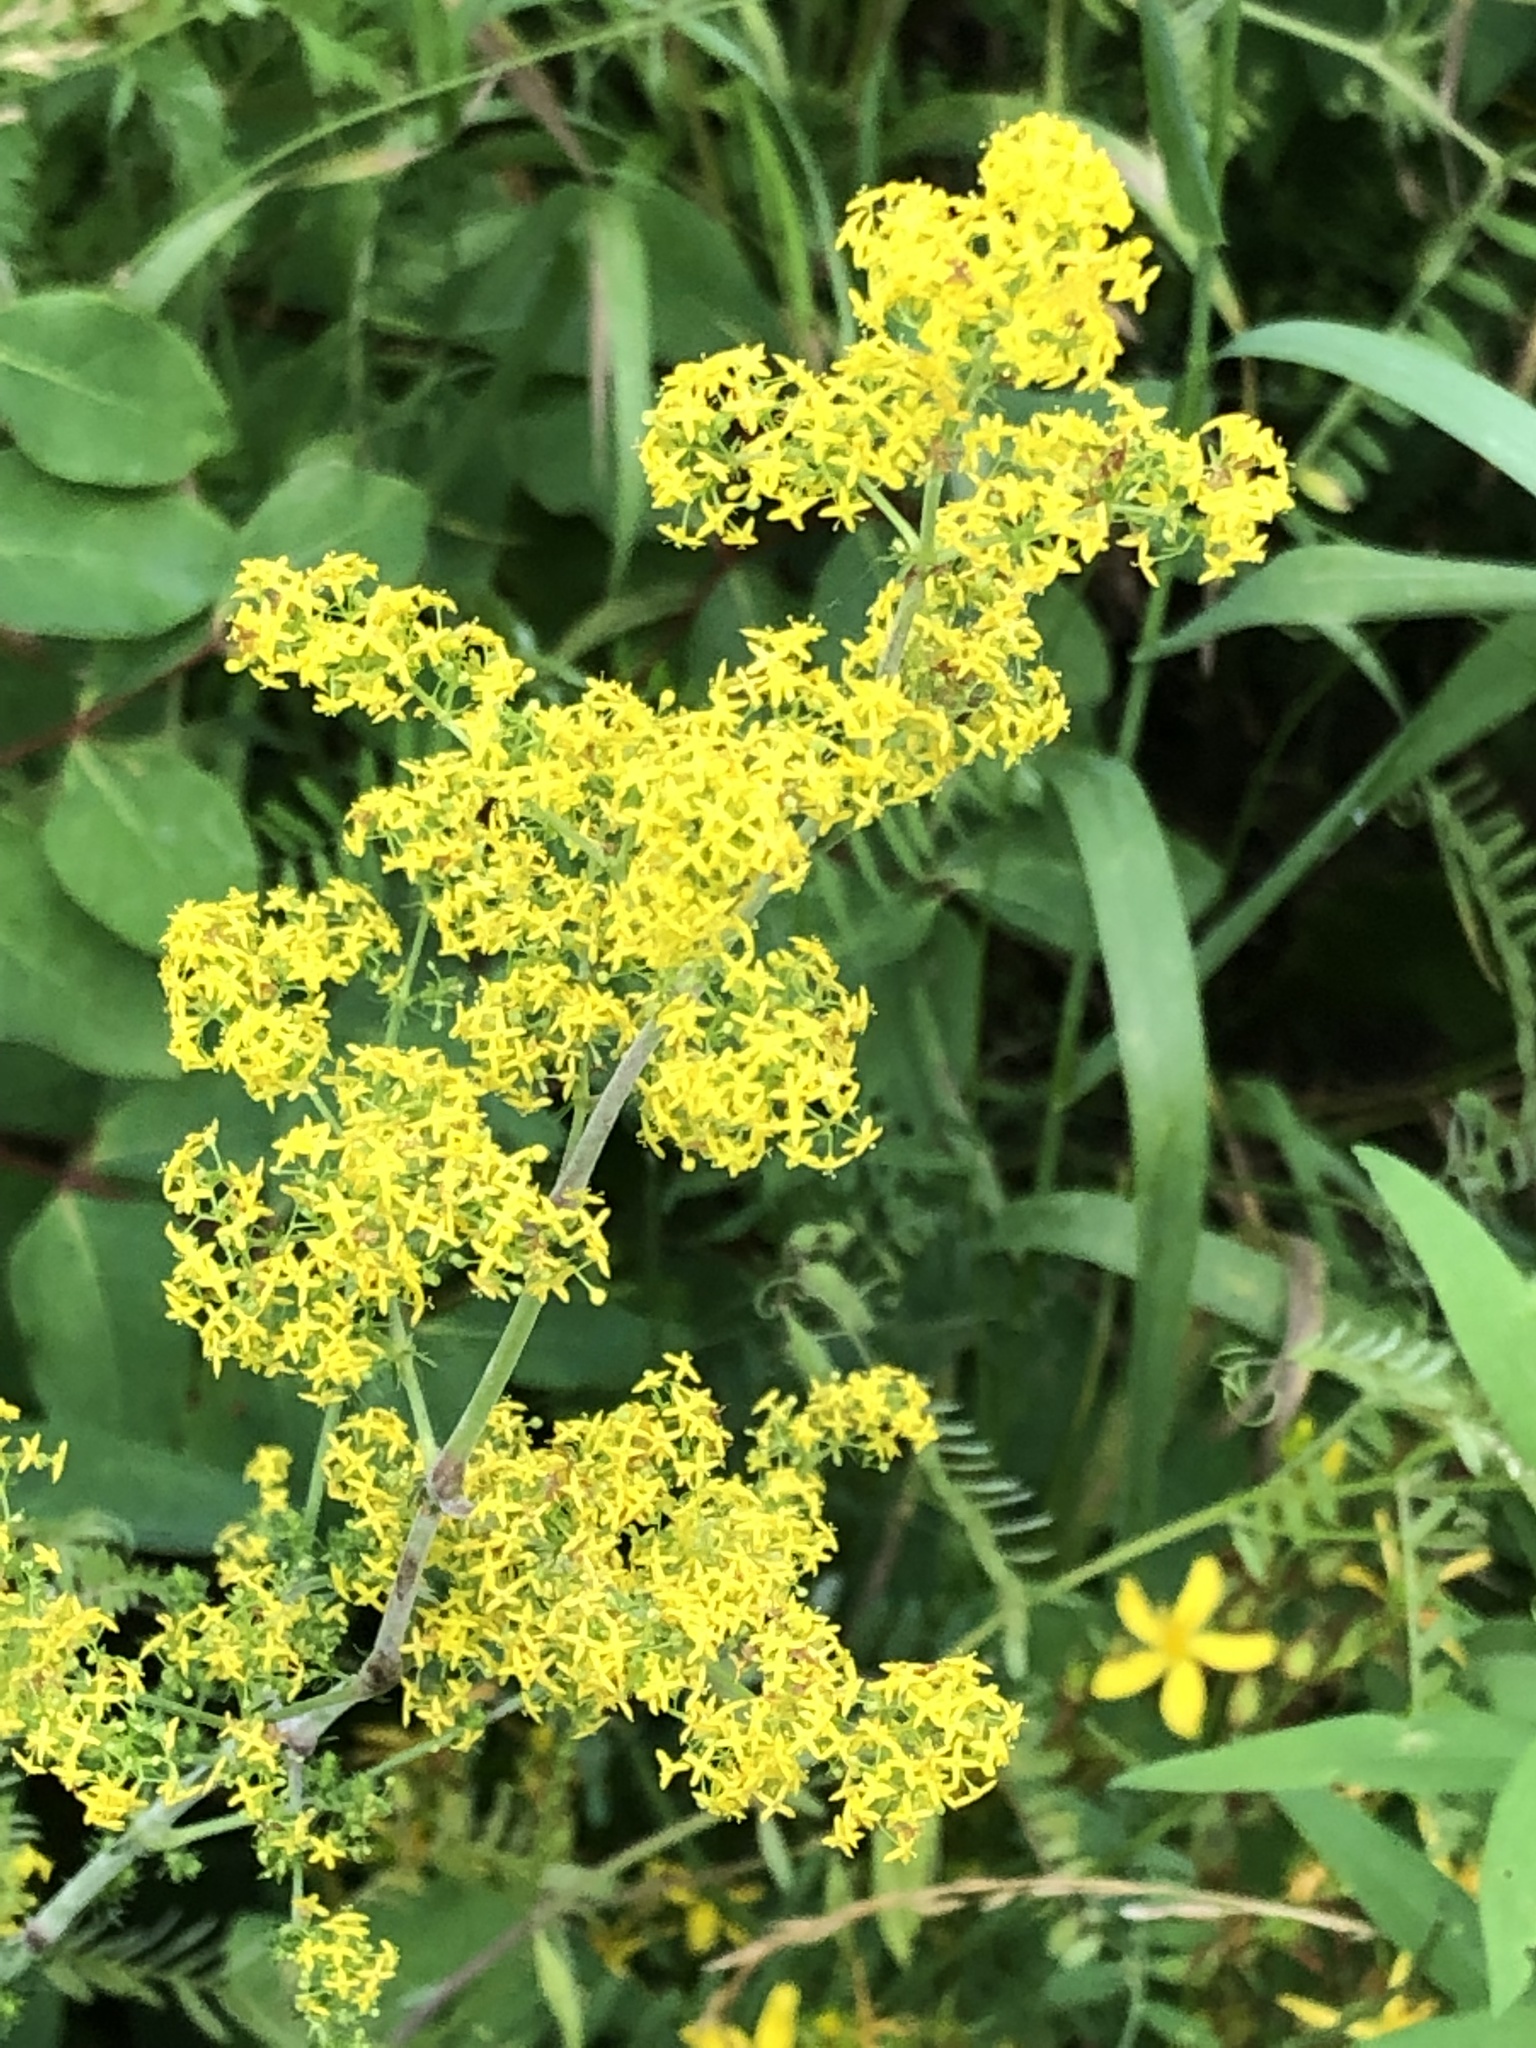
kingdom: Plantae
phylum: Tracheophyta
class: Magnoliopsida
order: Gentianales
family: Rubiaceae
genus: Galium
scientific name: Galium verum
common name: Lady's bedstraw
